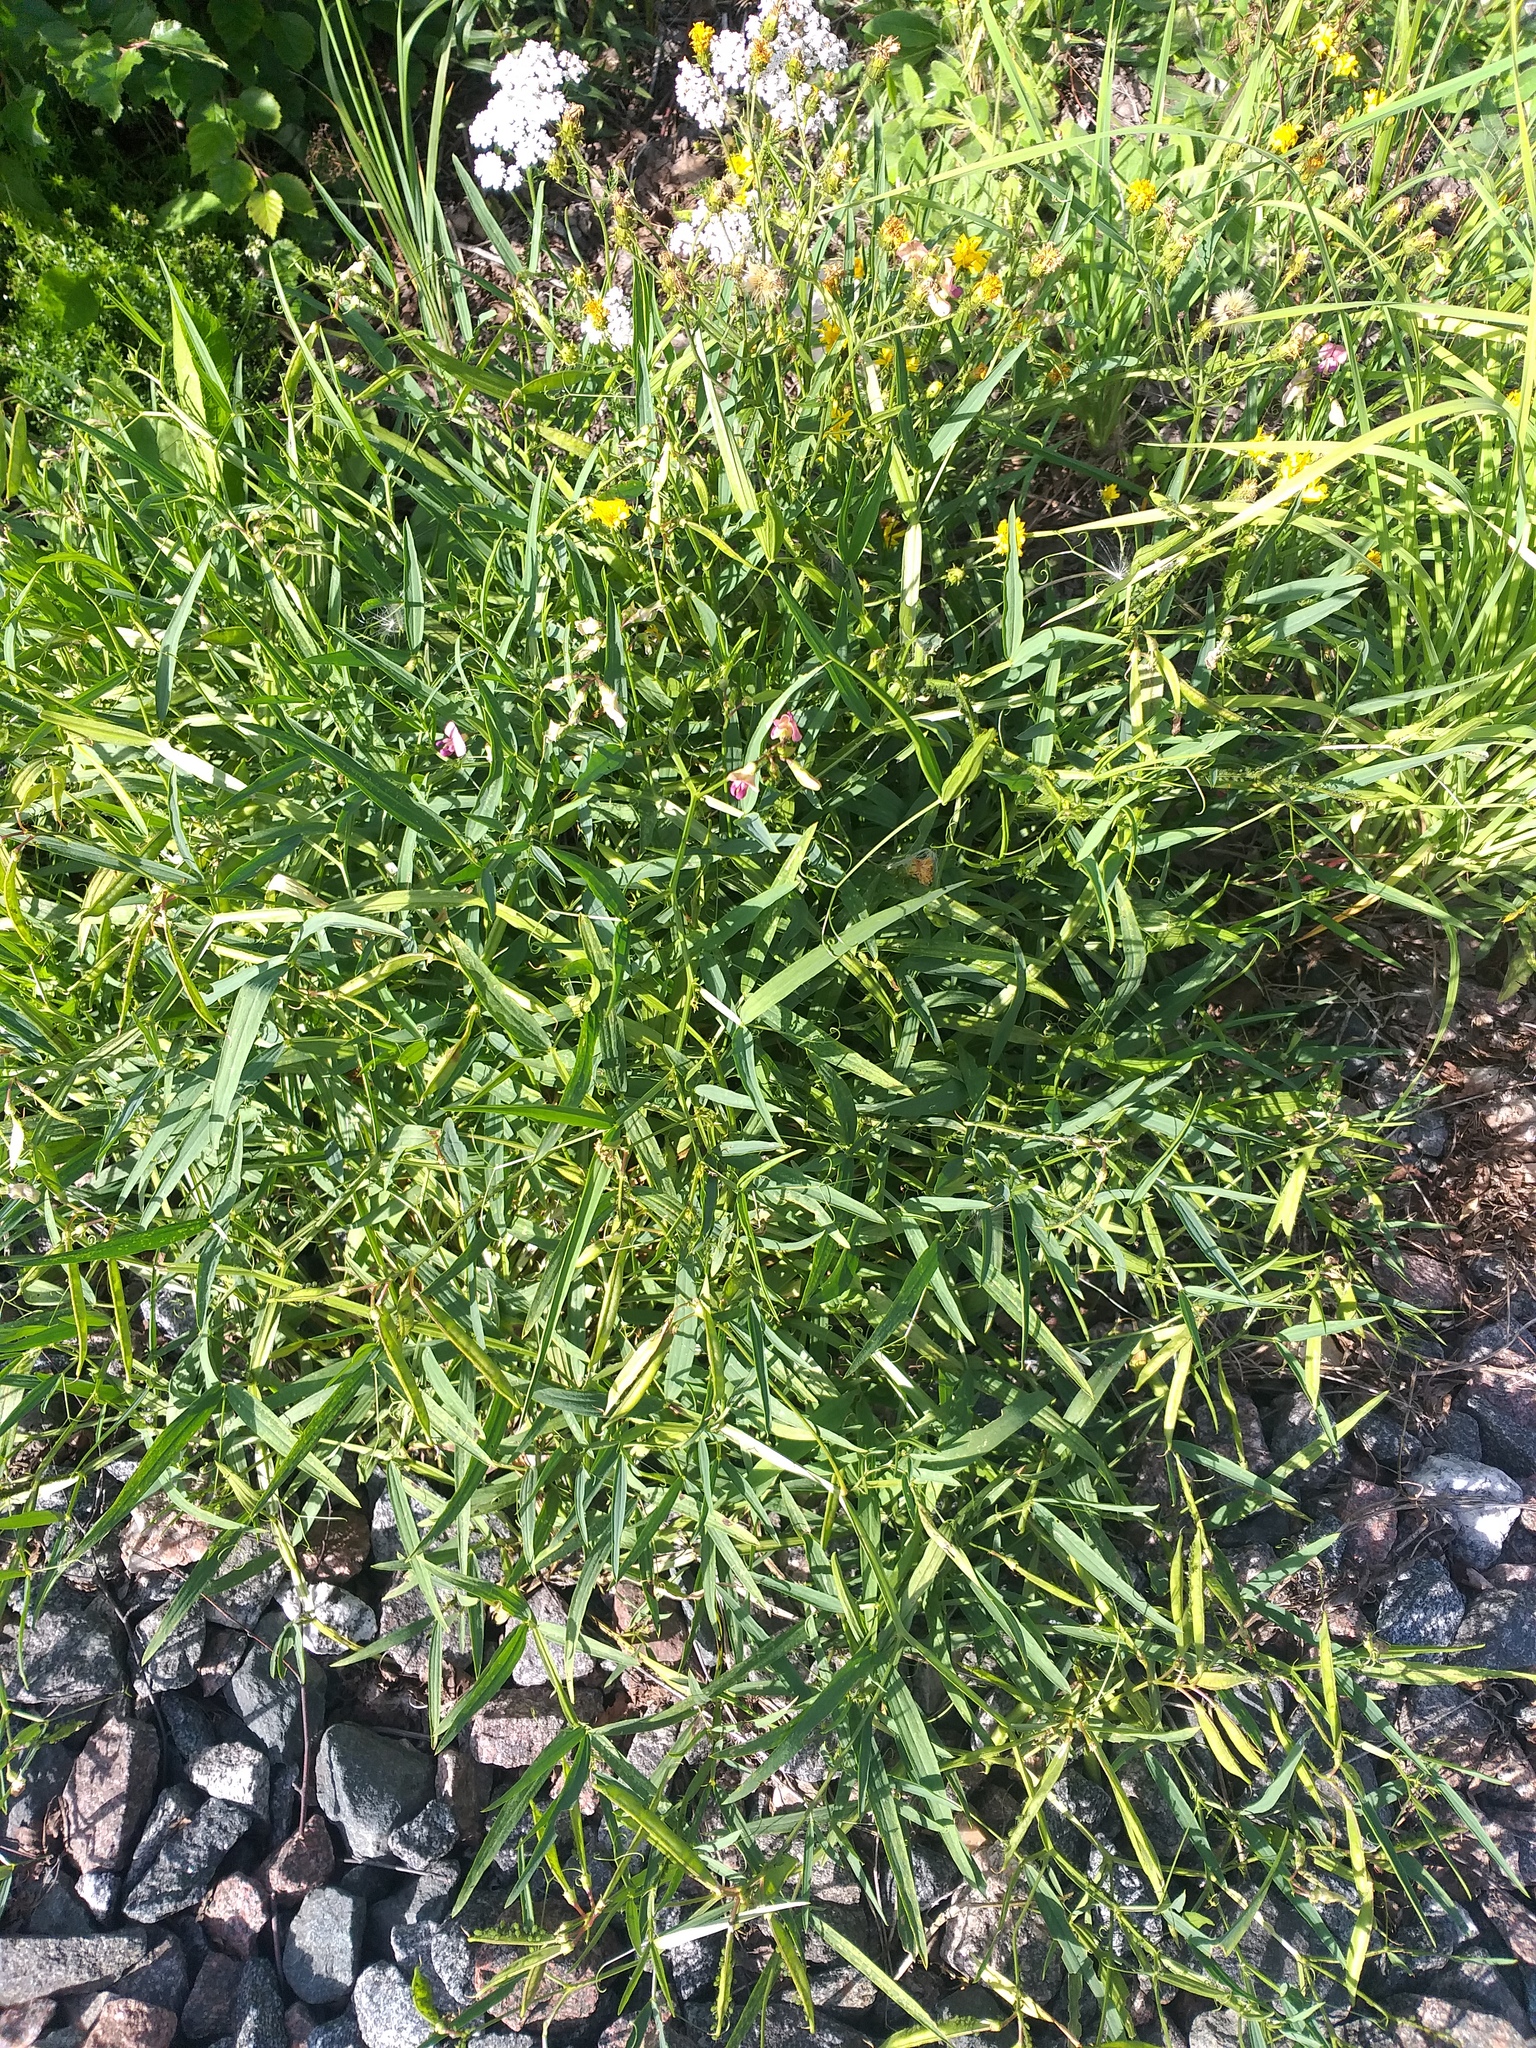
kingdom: Plantae
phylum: Tracheophyta
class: Magnoliopsida
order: Fabales
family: Fabaceae
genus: Lathyrus
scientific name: Lathyrus sylvestris
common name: Flat pea
